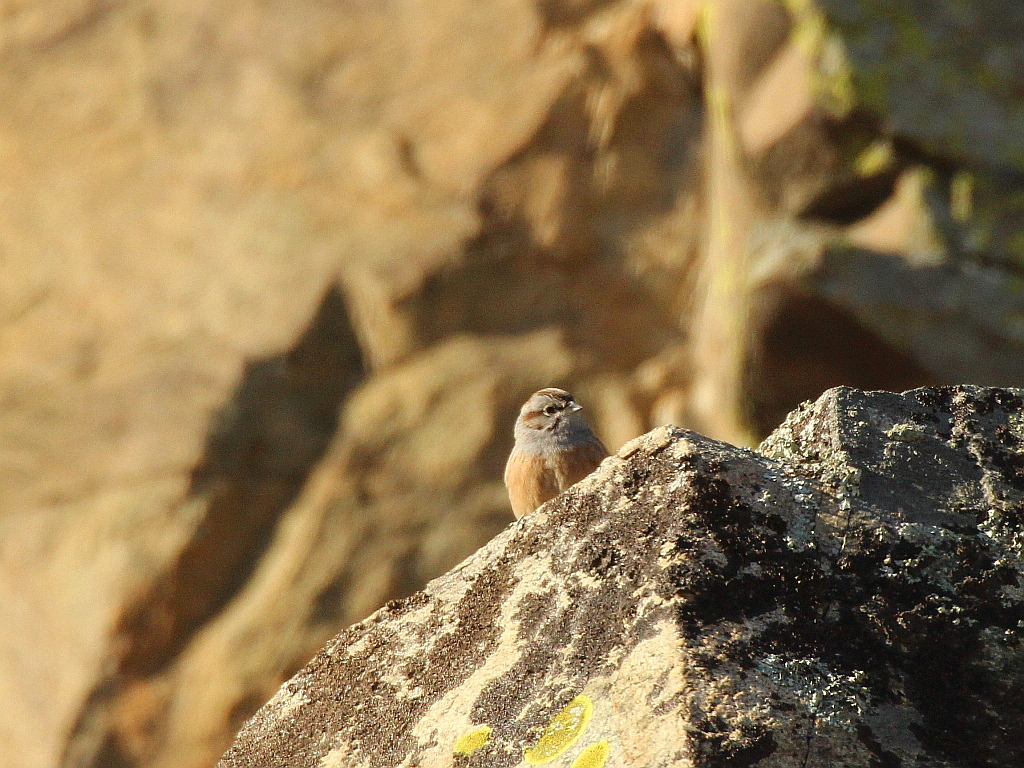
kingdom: Animalia
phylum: Chordata
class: Aves
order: Passeriformes
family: Emberizidae
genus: Emberiza
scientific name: Emberiza godlewskii
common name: Godlewski's bunting
